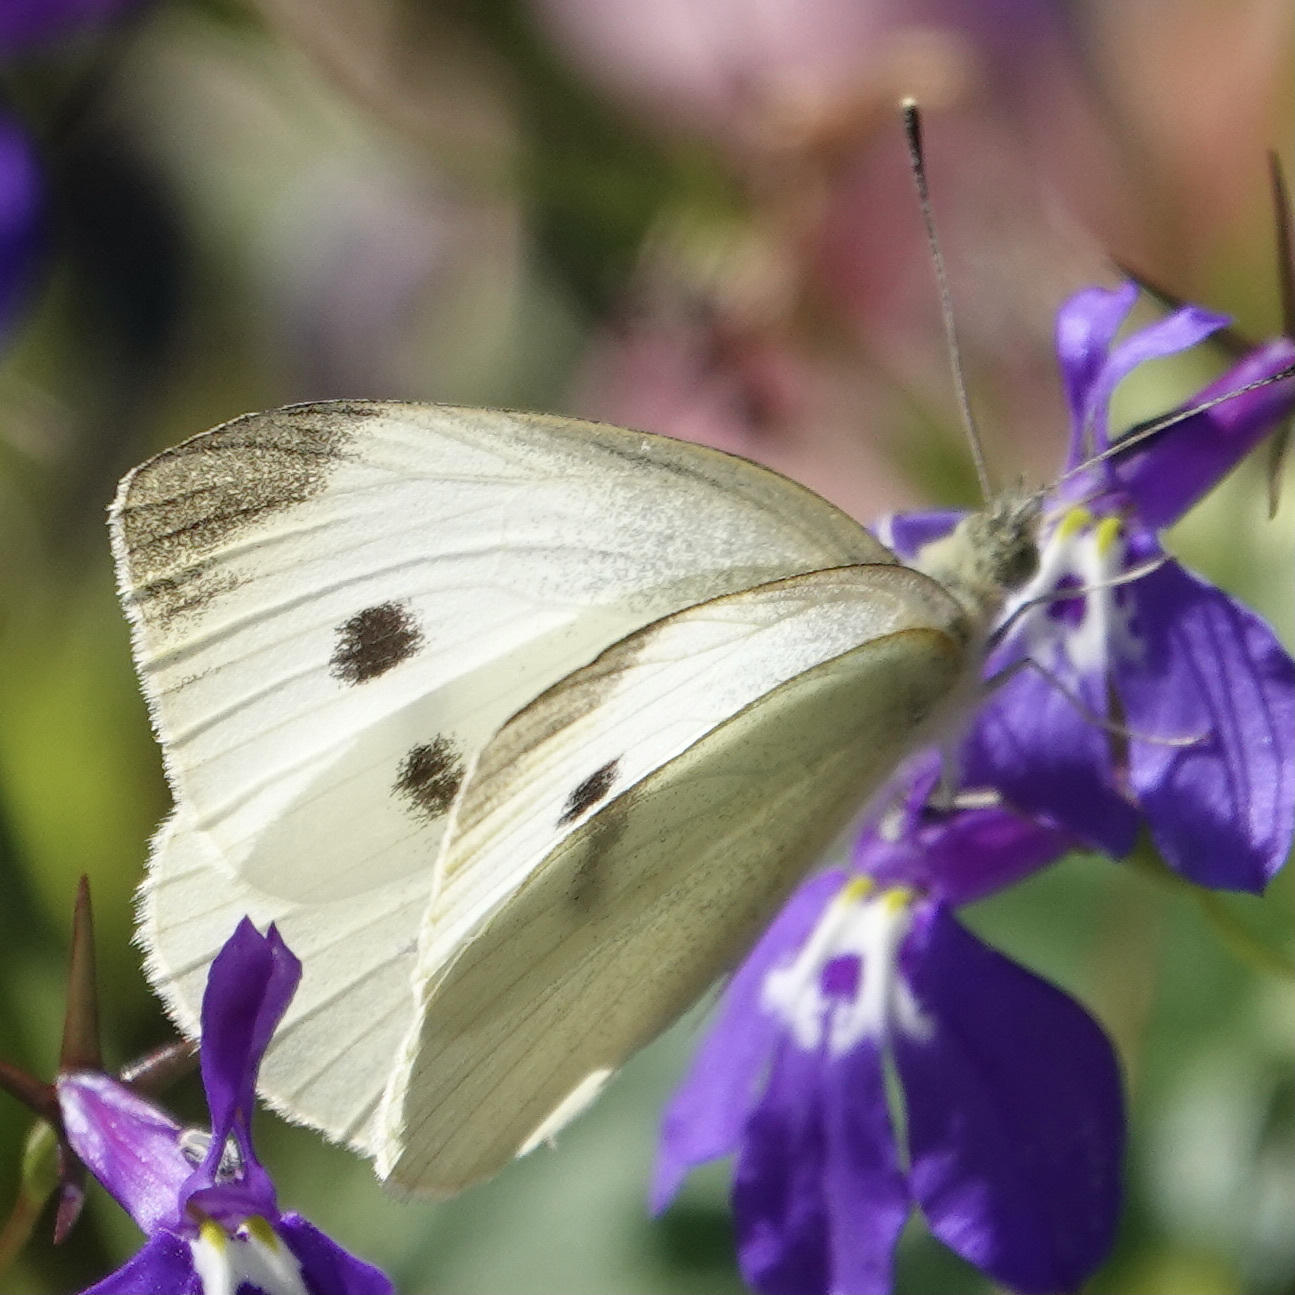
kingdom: Animalia
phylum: Arthropoda
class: Insecta
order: Lepidoptera
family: Pieridae
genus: Pieris
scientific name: Pieris rapae
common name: Small white
